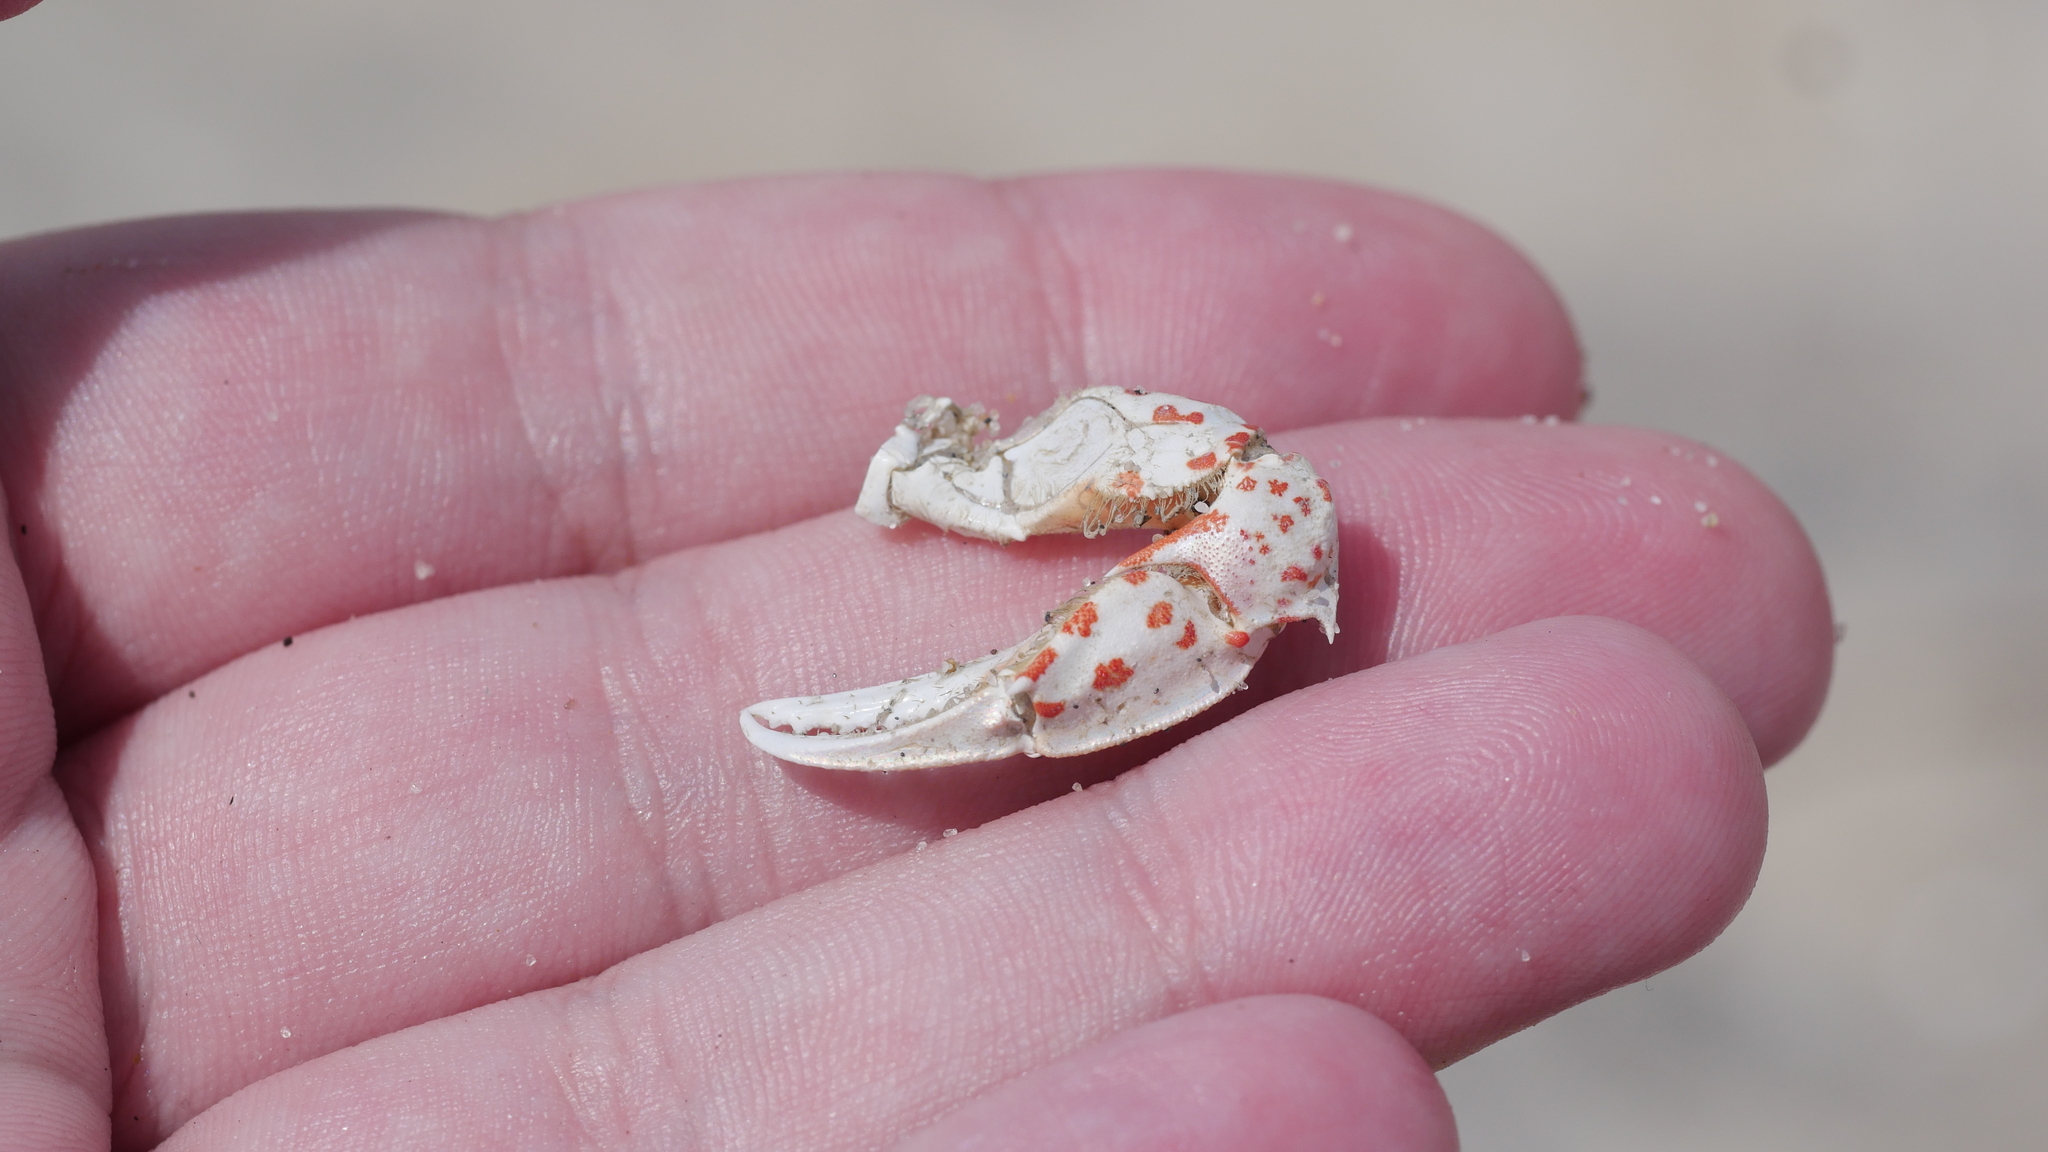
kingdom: Animalia
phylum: Arthropoda
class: Malacostraca
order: Decapoda
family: Ovalipidae
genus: Ovalipes
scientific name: Ovalipes ocellatus
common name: Lady crab
